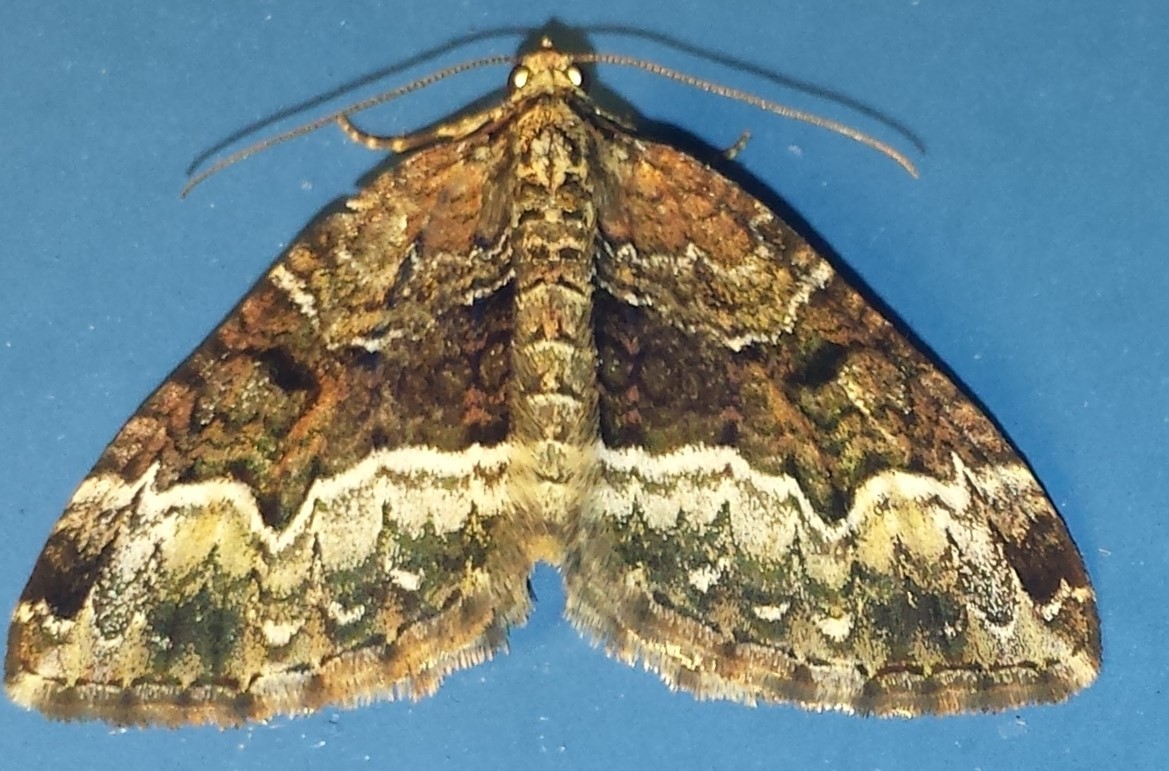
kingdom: Animalia
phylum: Arthropoda
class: Insecta
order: Lepidoptera
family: Geometridae
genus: Euphyia
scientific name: Euphyia intermediata
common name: Sharp-angled carpet
